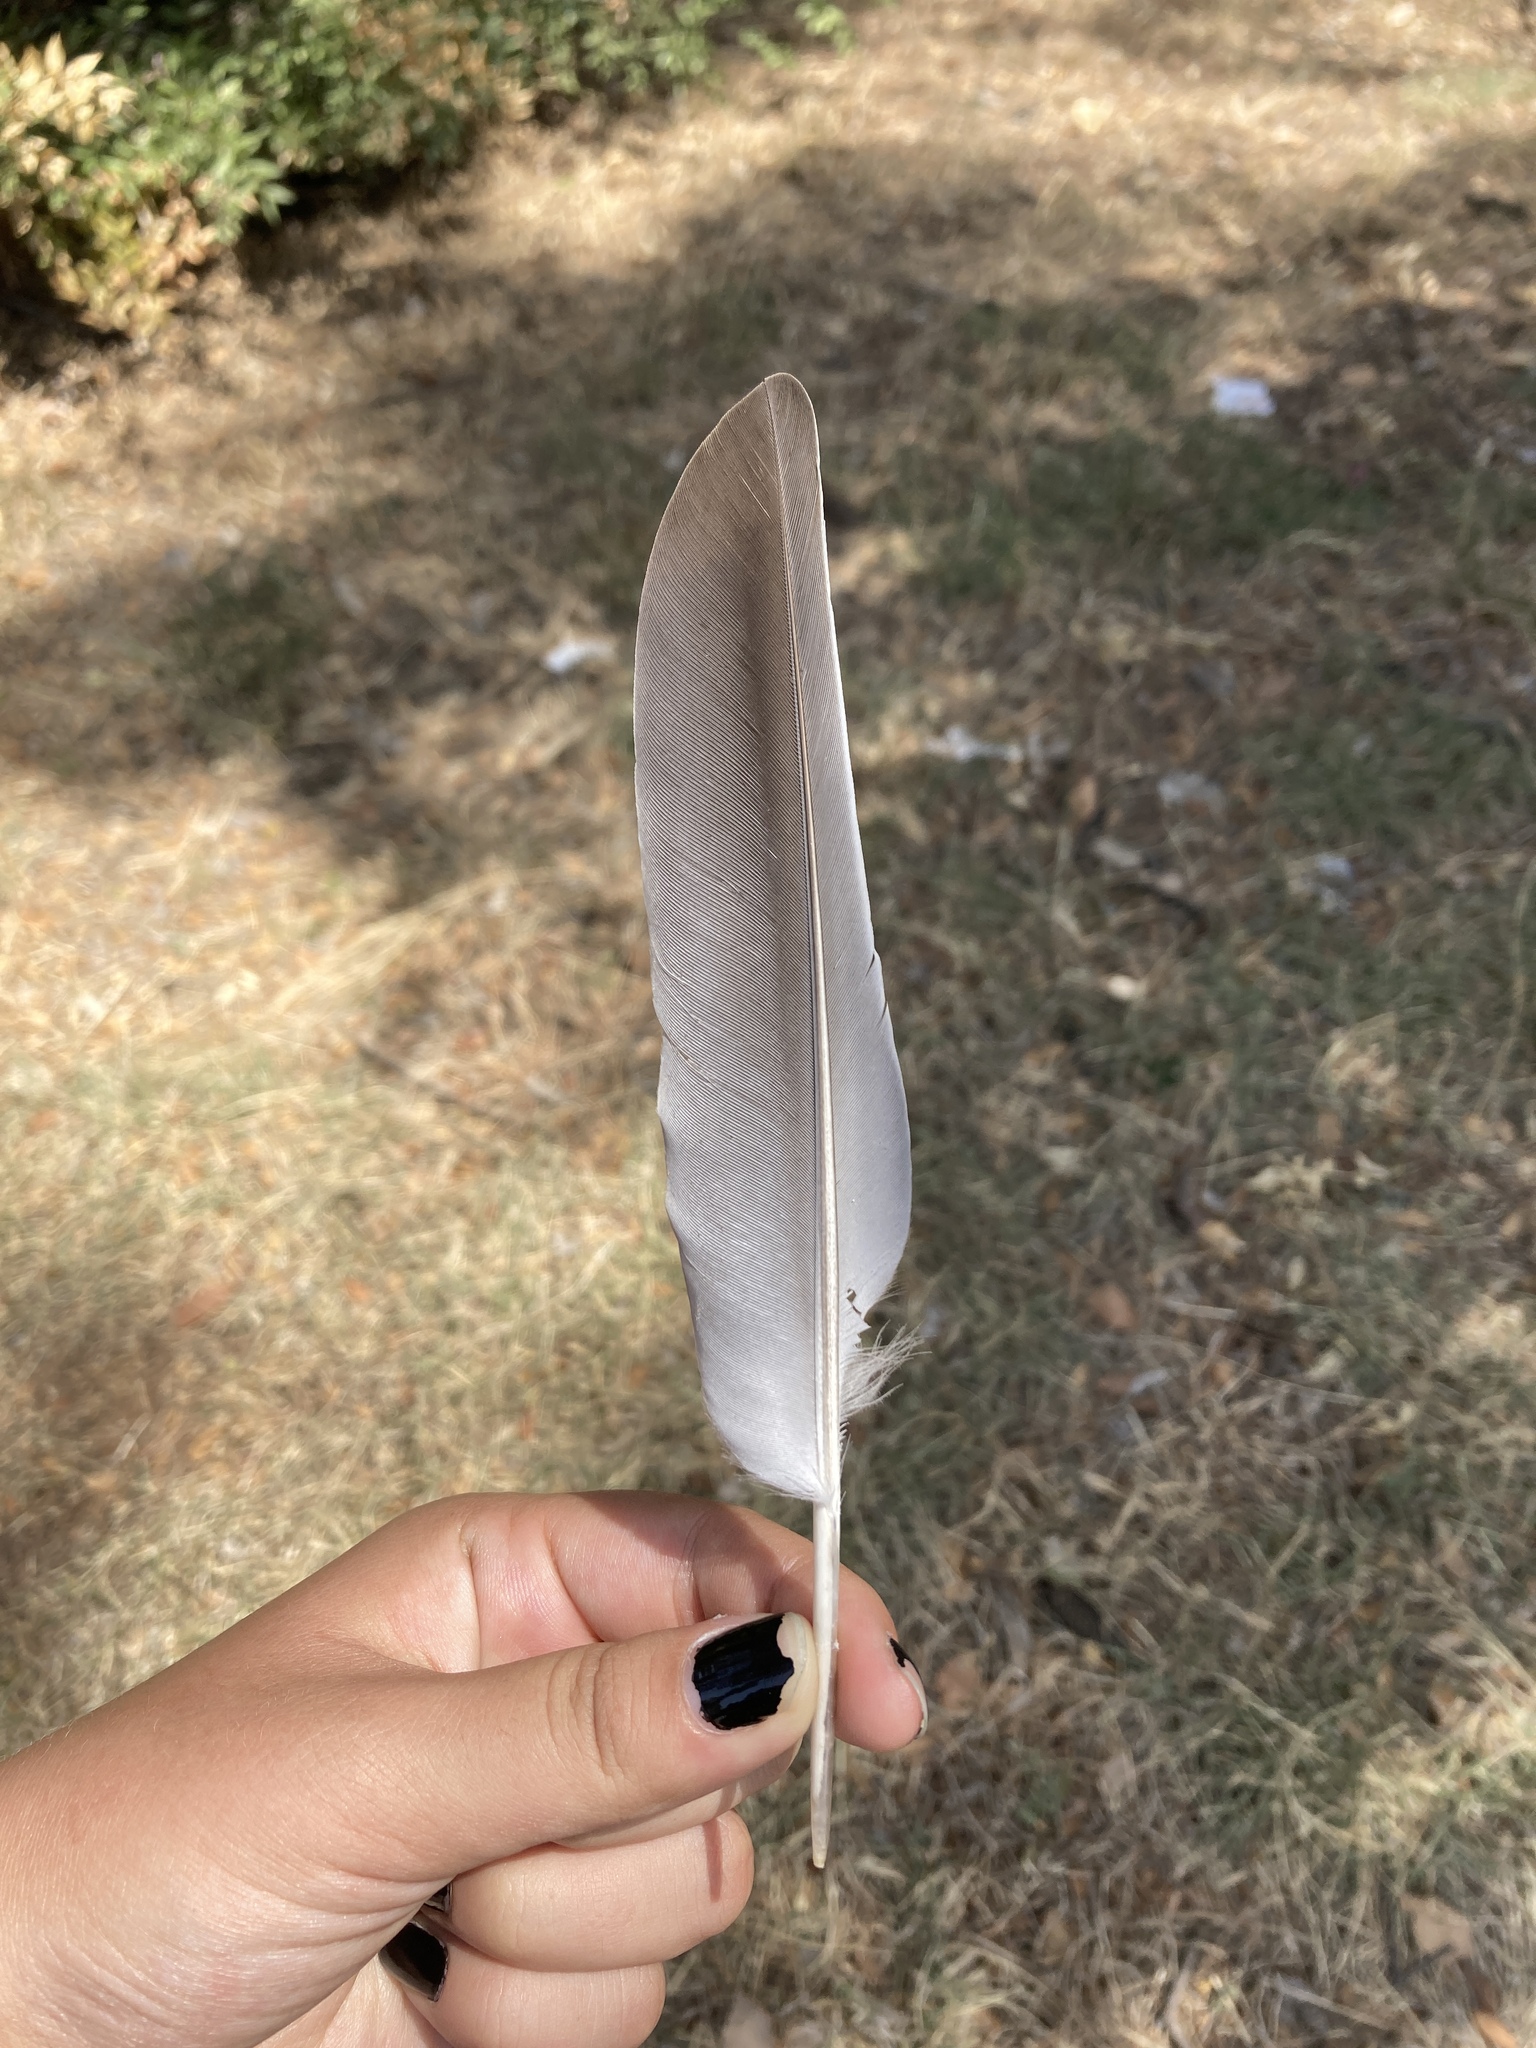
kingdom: Animalia
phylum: Chordata
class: Aves
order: Columbiformes
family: Columbidae
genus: Columba
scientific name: Columba palumbus
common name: Common wood pigeon
